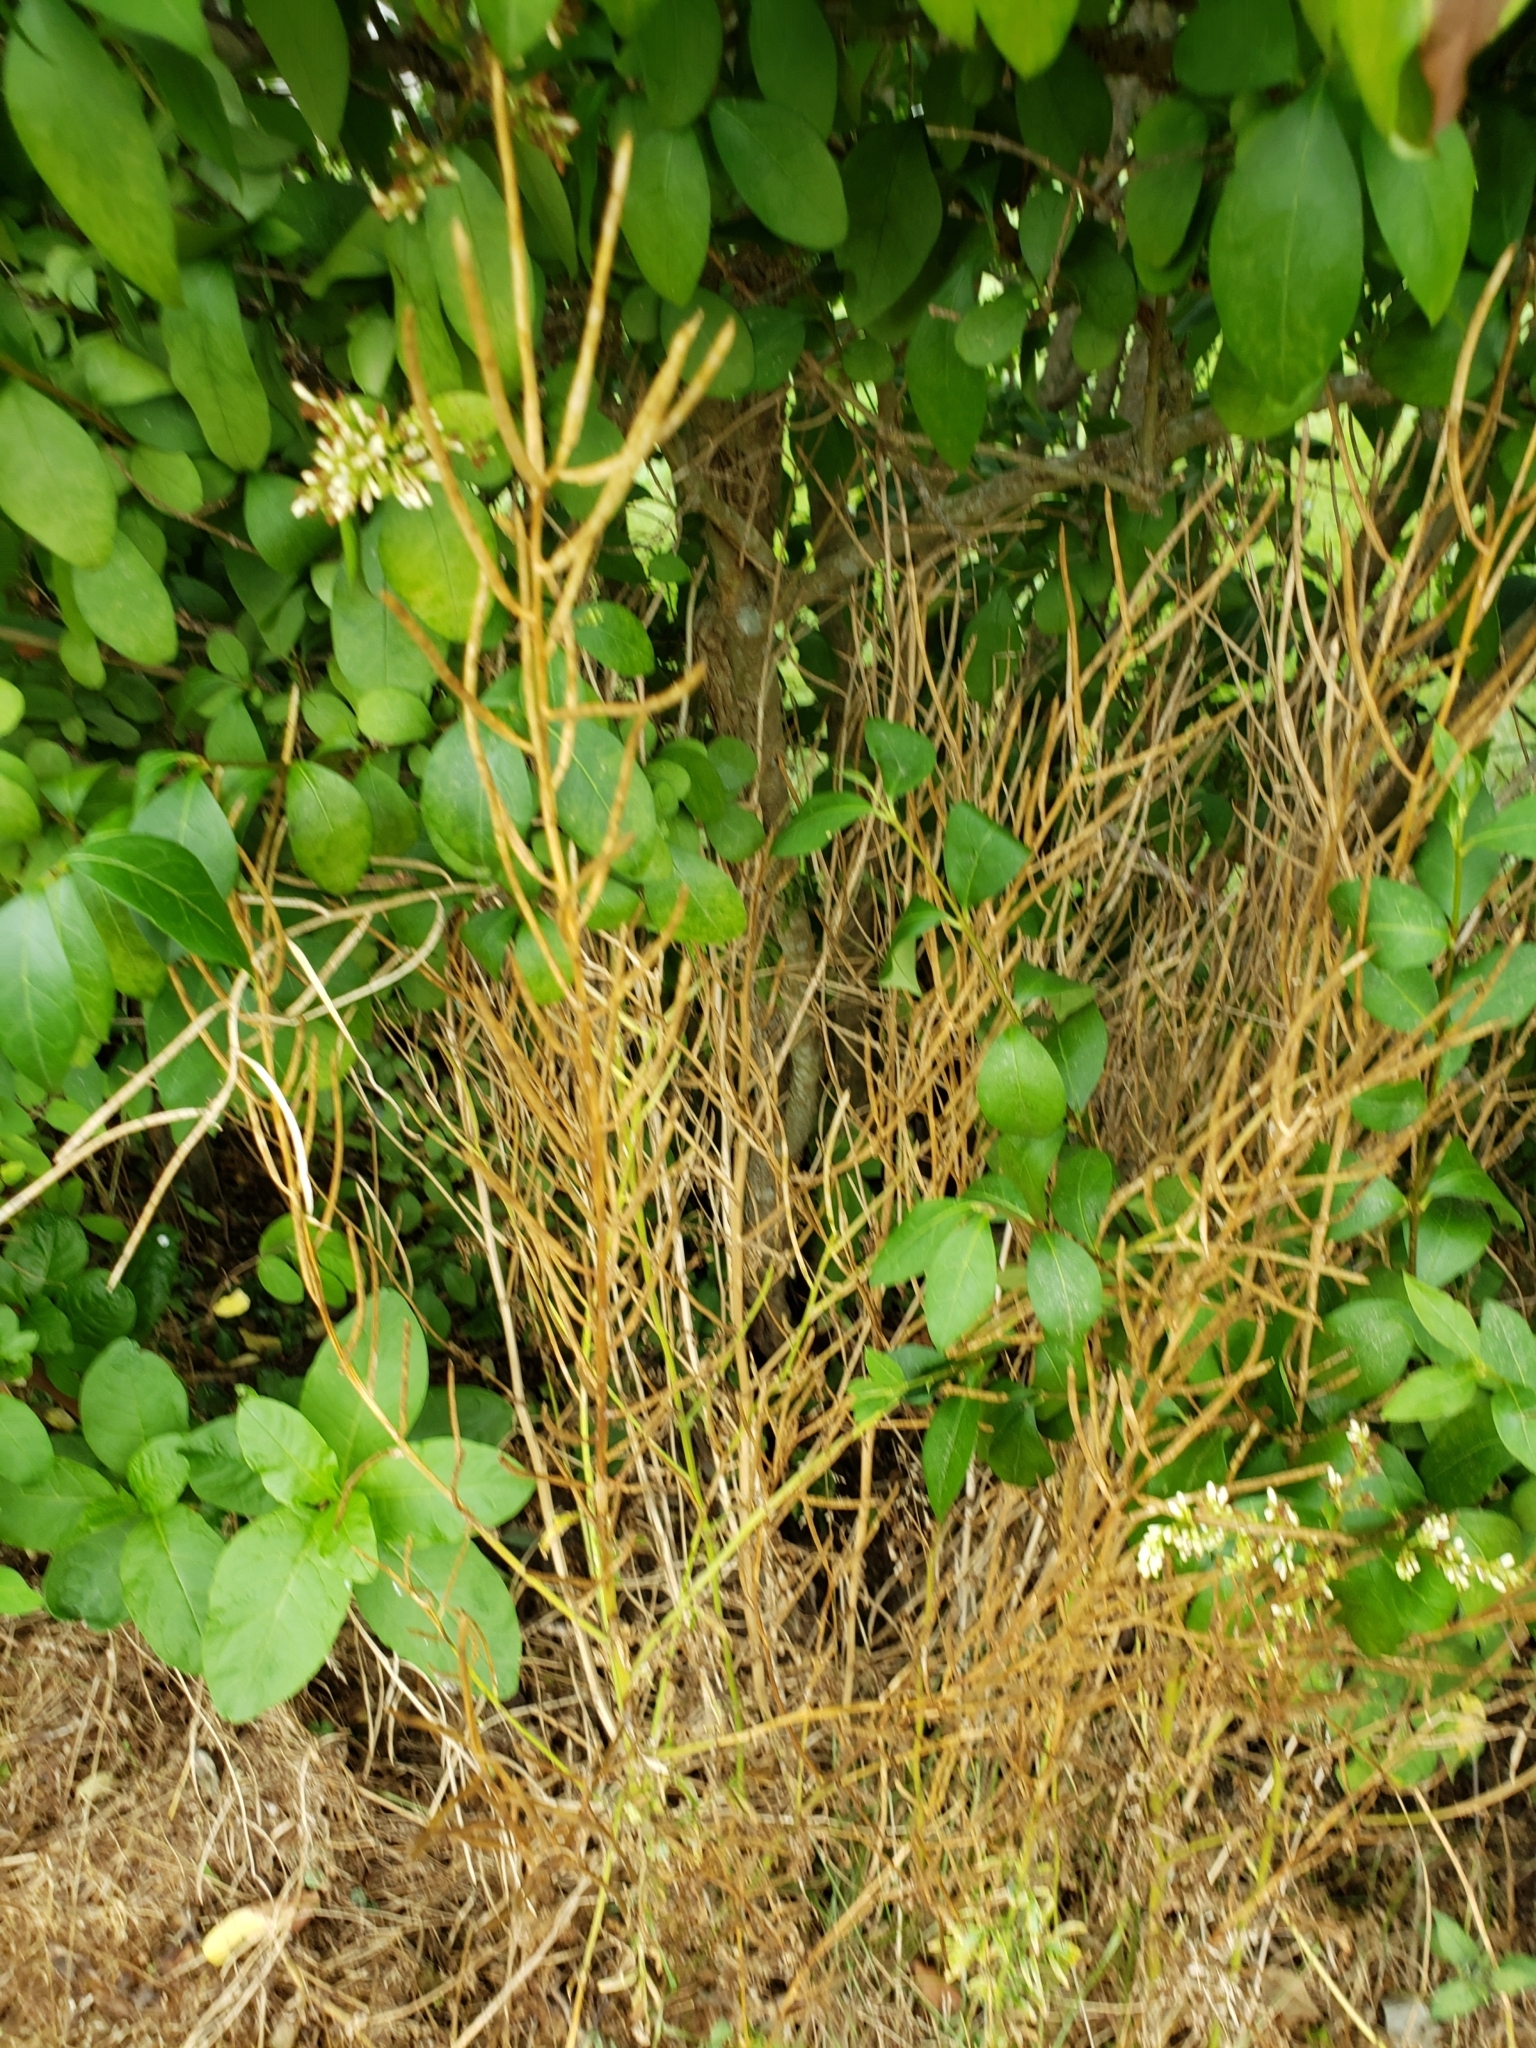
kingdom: Plantae
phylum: Tracheophyta
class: Magnoliopsida
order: Brassicales
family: Brassicaceae
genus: Alliaria
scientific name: Alliaria petiolata
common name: Garlic mustard
